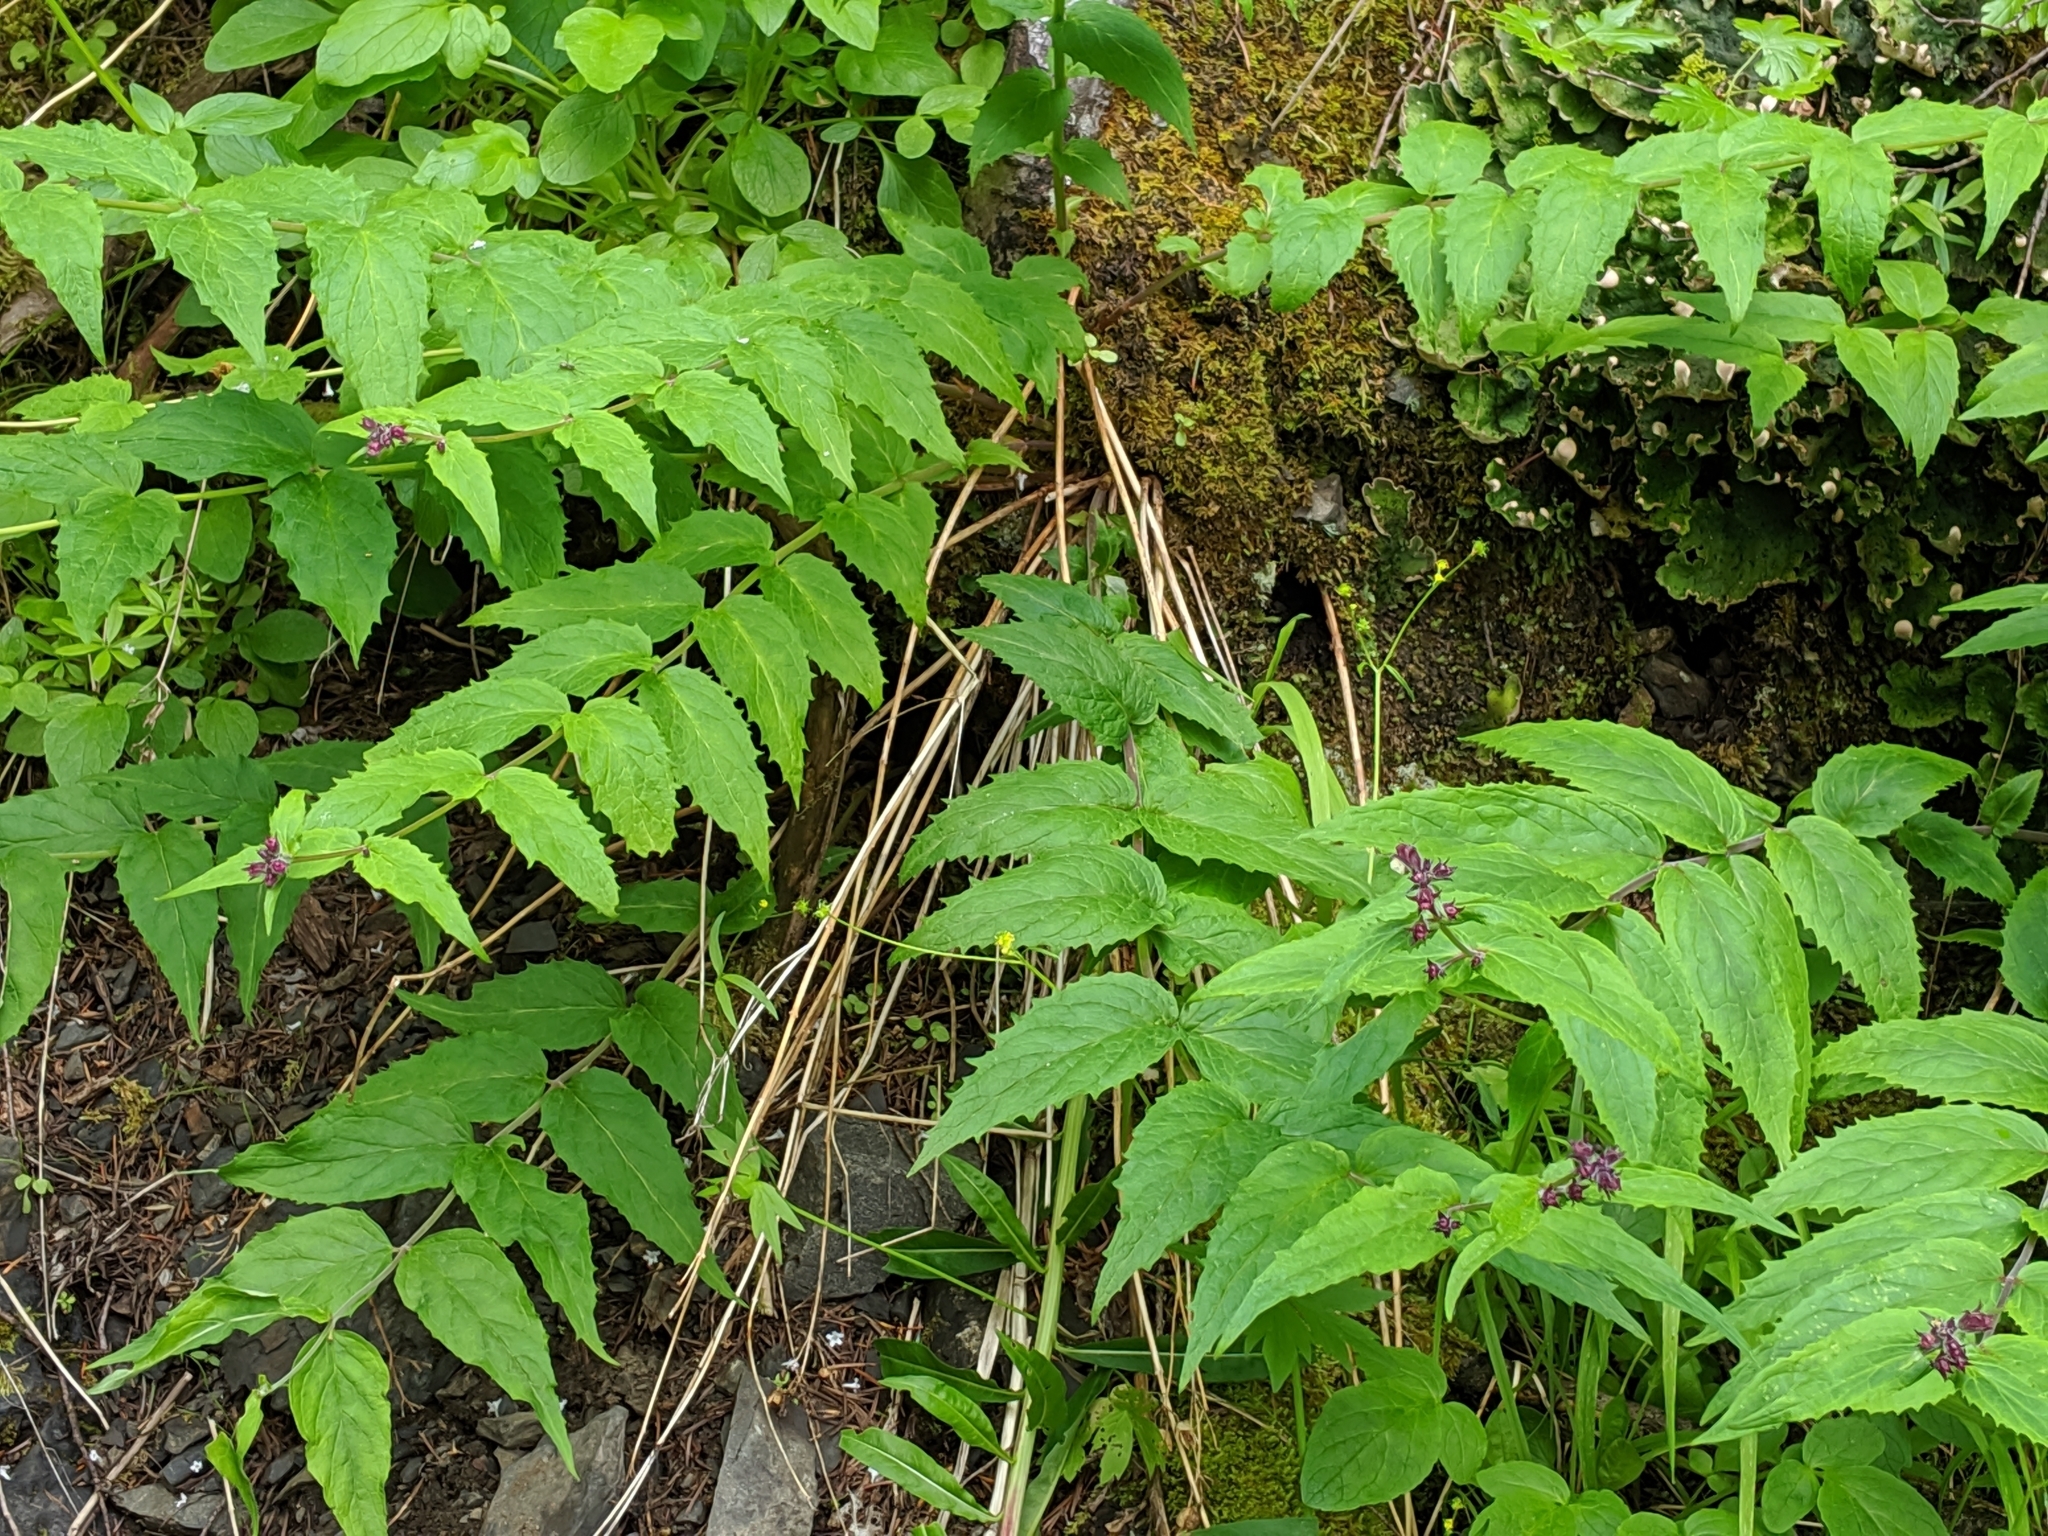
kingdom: Plantae
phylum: Tracheophyta
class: Magnoliopsida
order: Lamiales
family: Plantaginaceae
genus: Nothochelone
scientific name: Nothochelone nemorosa
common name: Woodland beardtongue
